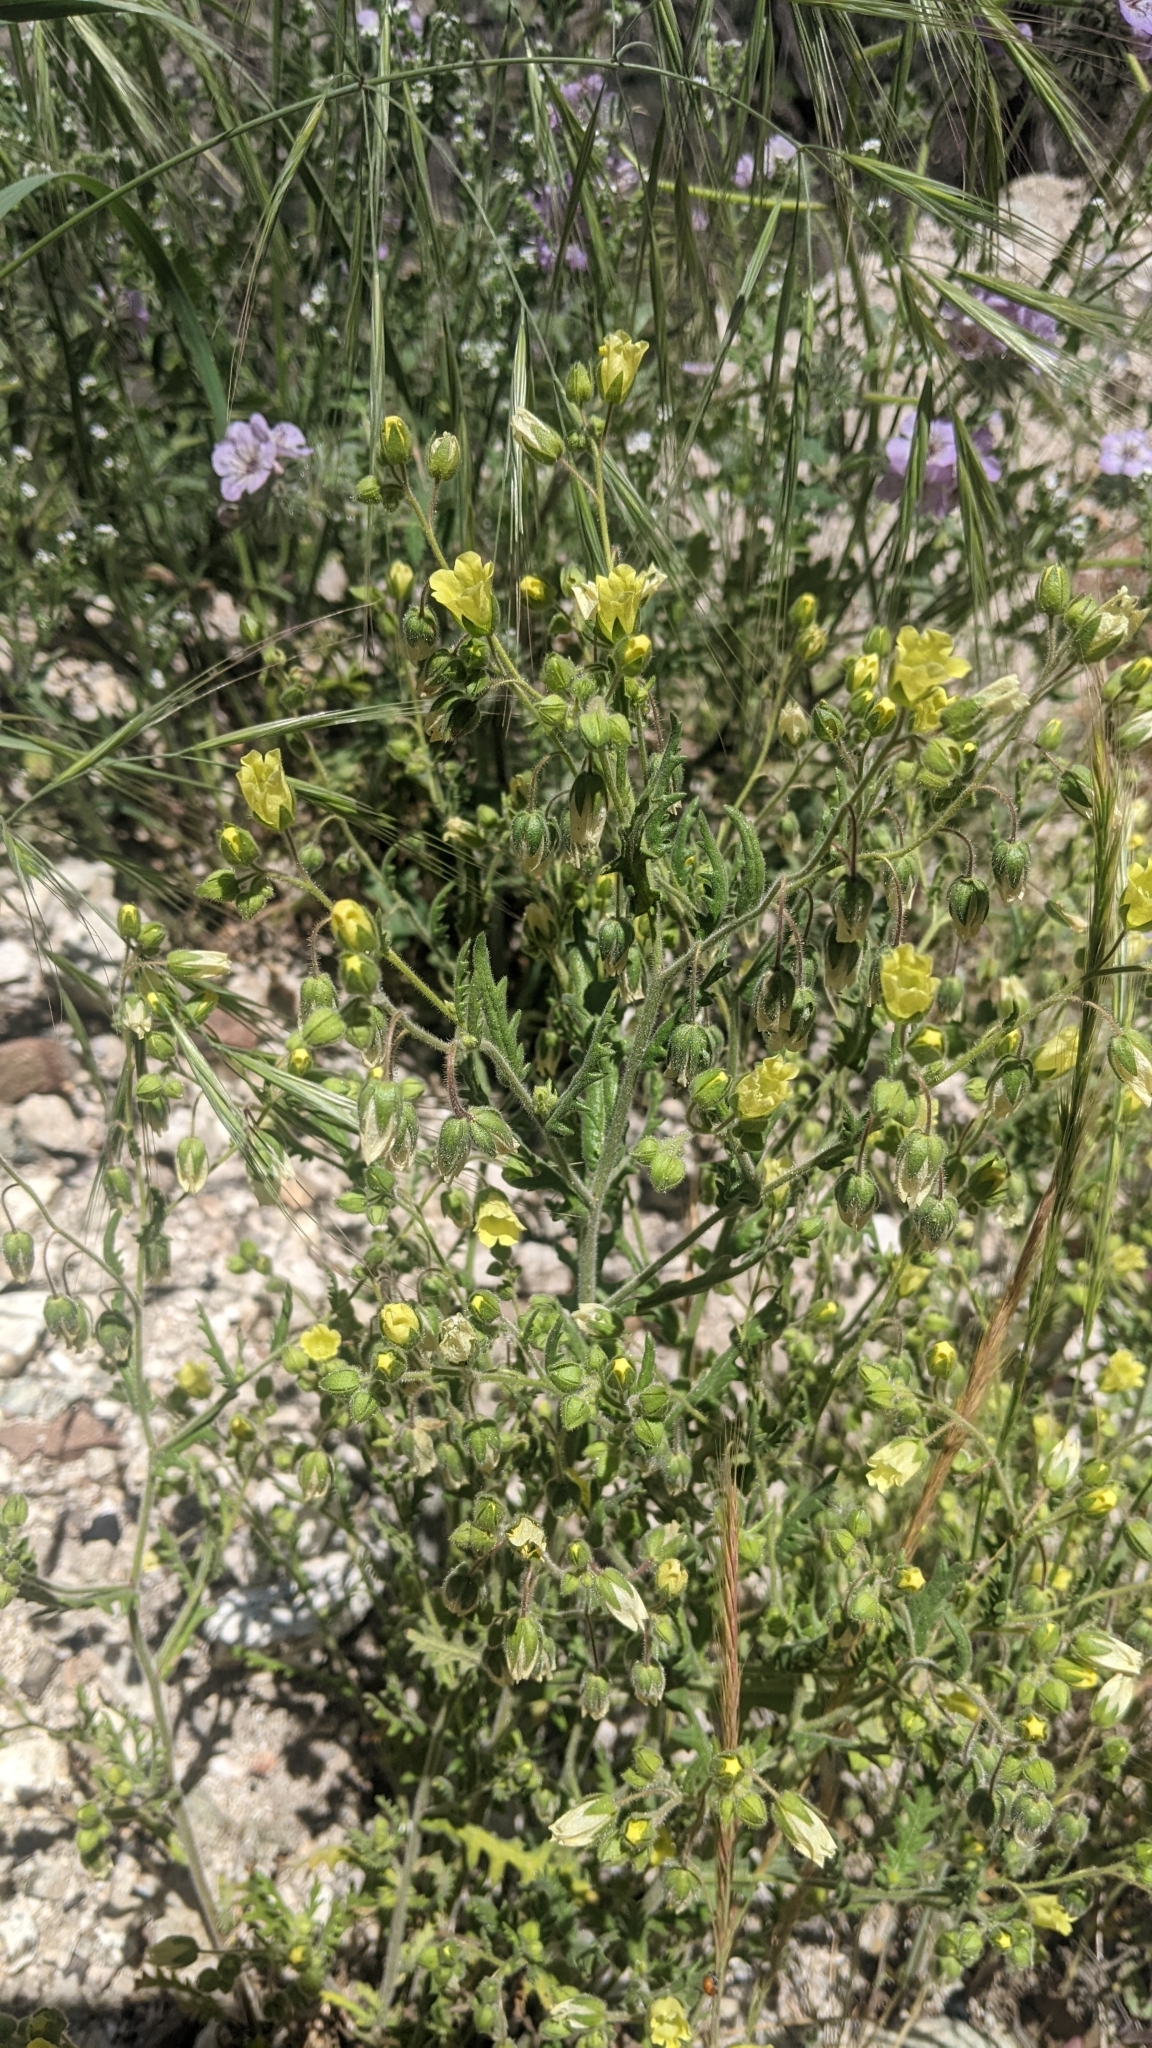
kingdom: Plantae
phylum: Tracheophyta
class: Magnoliopsida
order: Boraginales
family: Hydrophyllaceae
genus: Emmenanthe
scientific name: Emmenanthe penduliflora
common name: Whispering-bells
